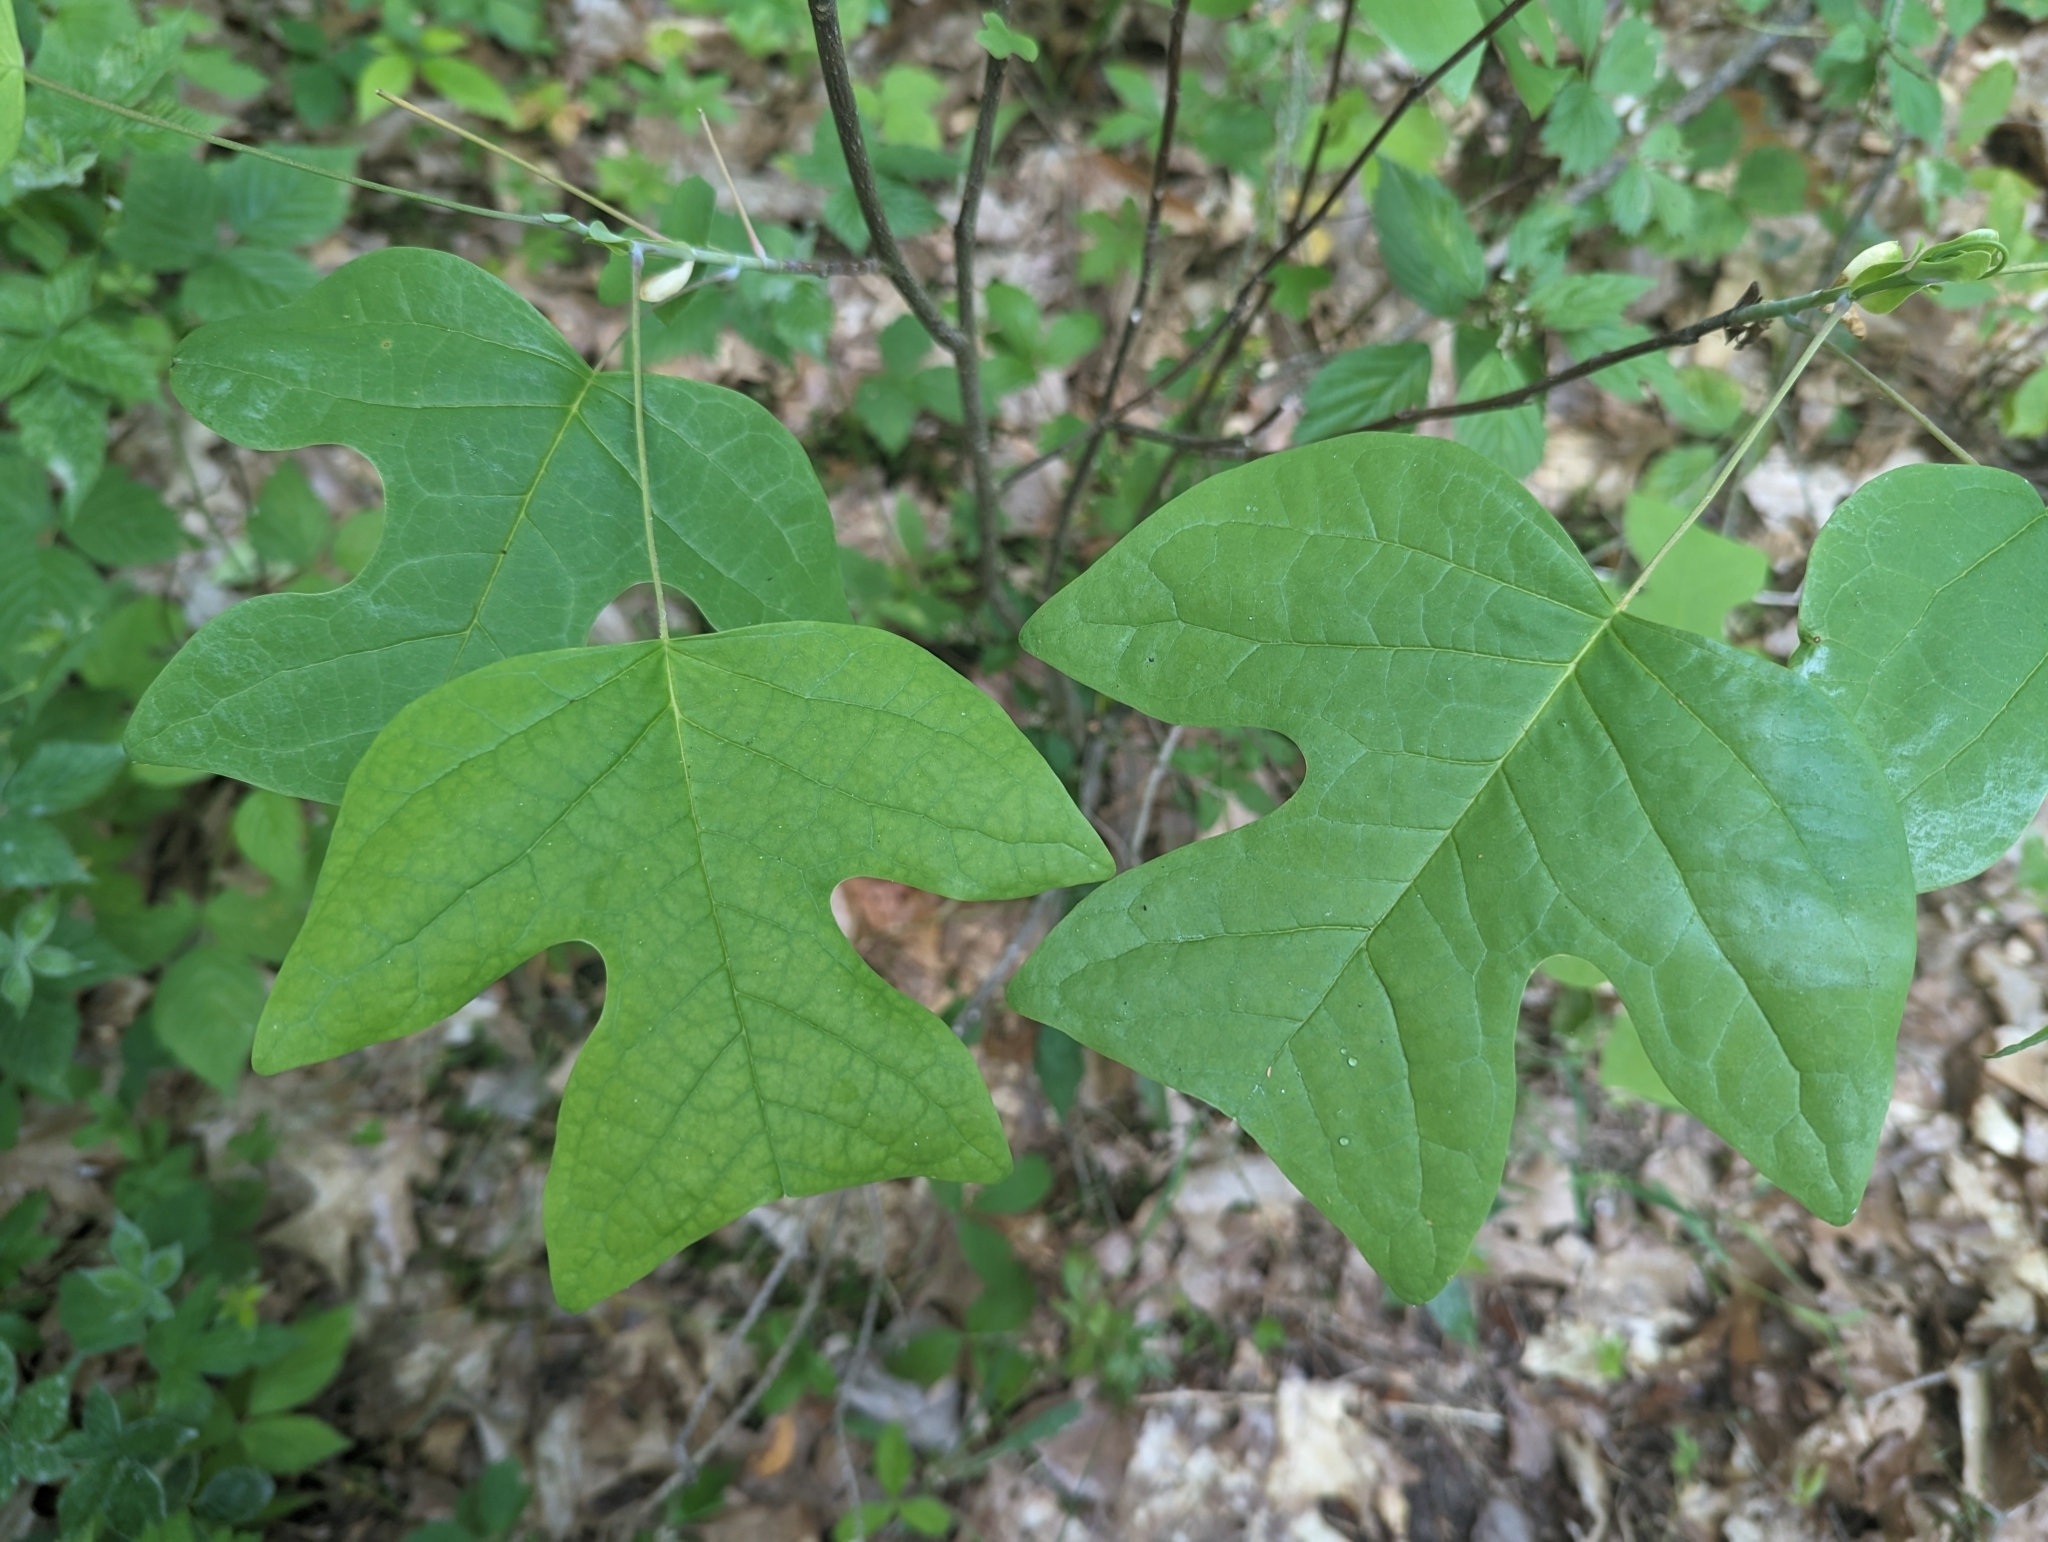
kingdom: Plantae
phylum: Tracheophyta
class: Magnoliopsida
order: Magnoliales
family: Magnoliaceae
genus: Liriodendron
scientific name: Liriodendron tulipifera
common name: Tulip tree
